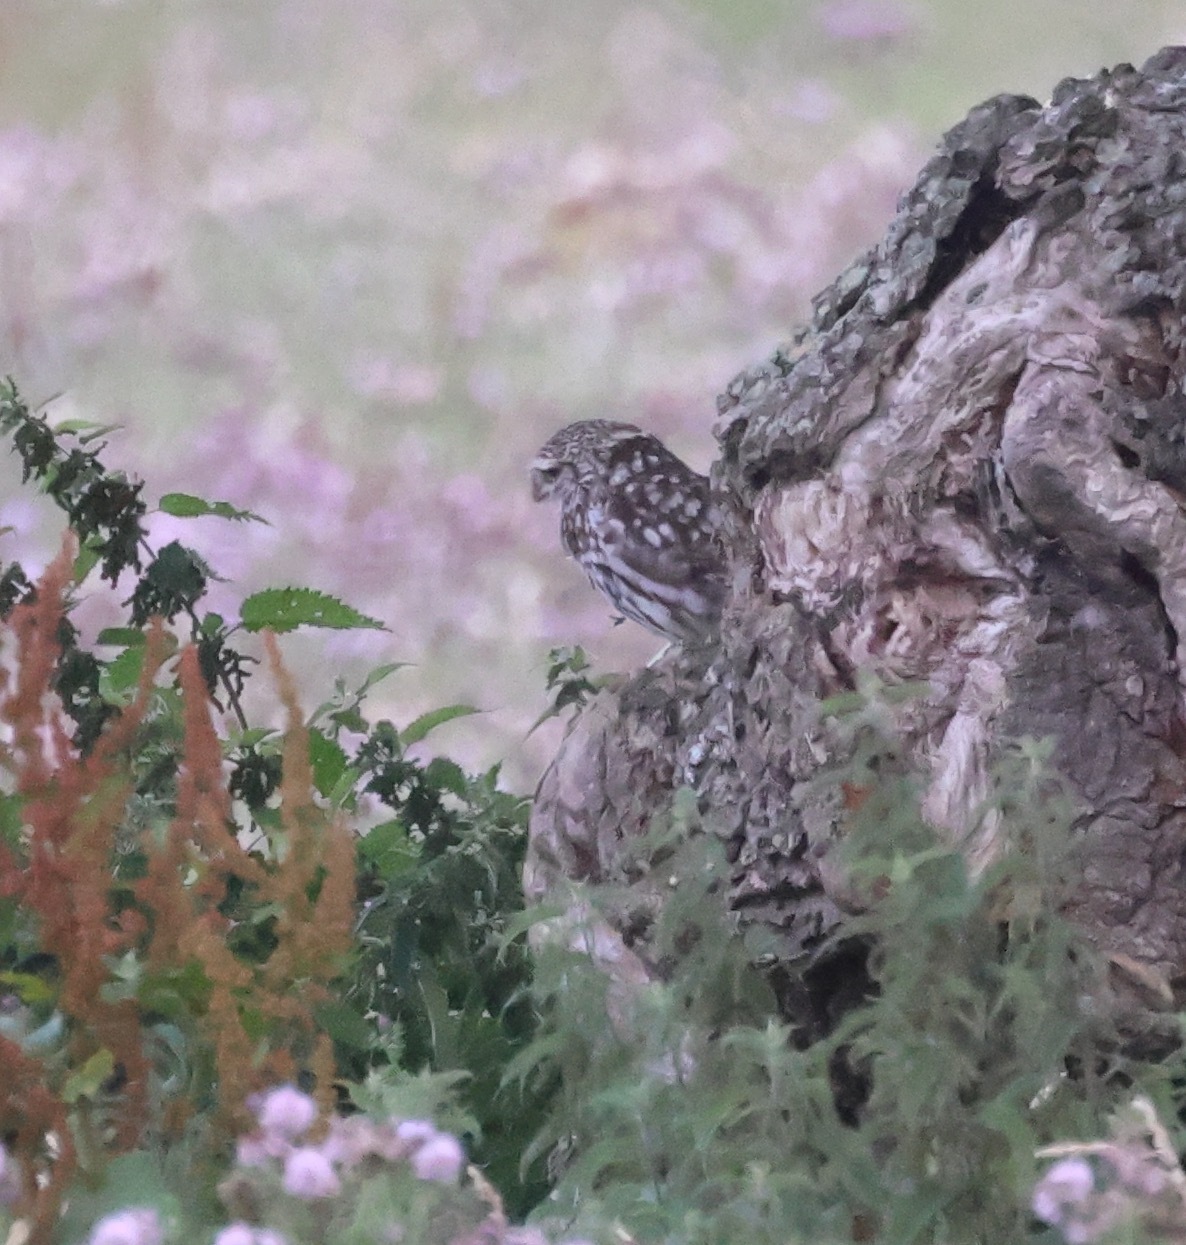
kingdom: Animalia
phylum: Chordata
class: Aves
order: Strigiformes
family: Strigidae
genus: Athene
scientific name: Athene noctua
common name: Little owl
